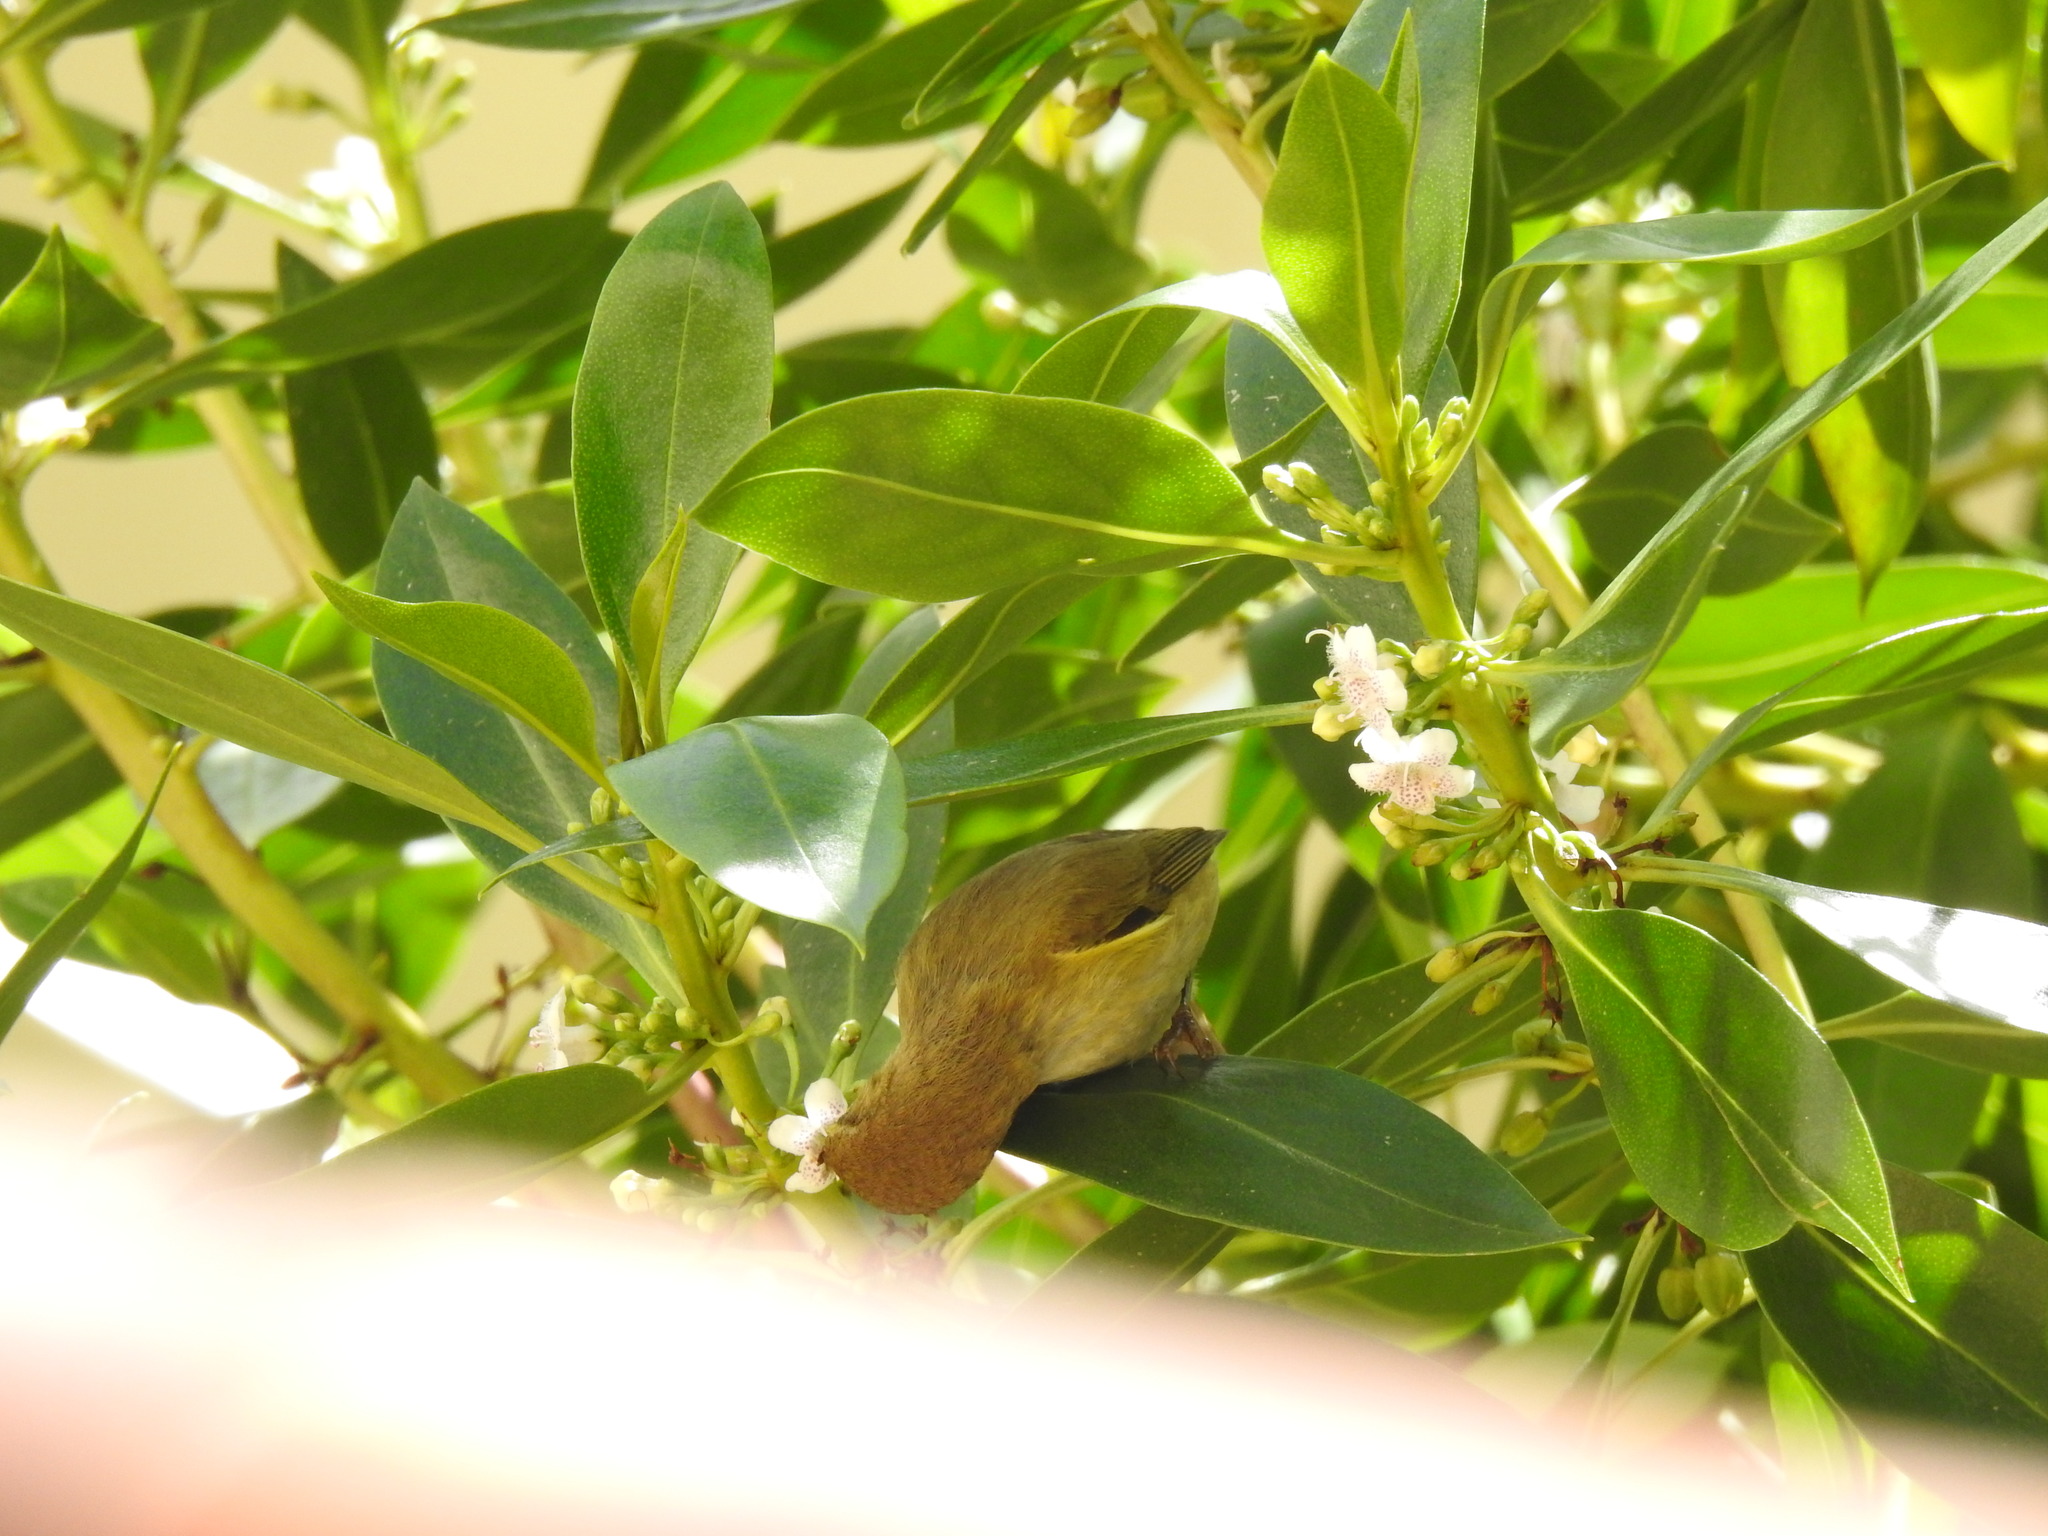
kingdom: Animalia
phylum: Chordata
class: Aves
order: Passeriformes
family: Phylloscopidae
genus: Phylloscopus
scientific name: Phylloscopus collybita
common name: Common chiffchaff
